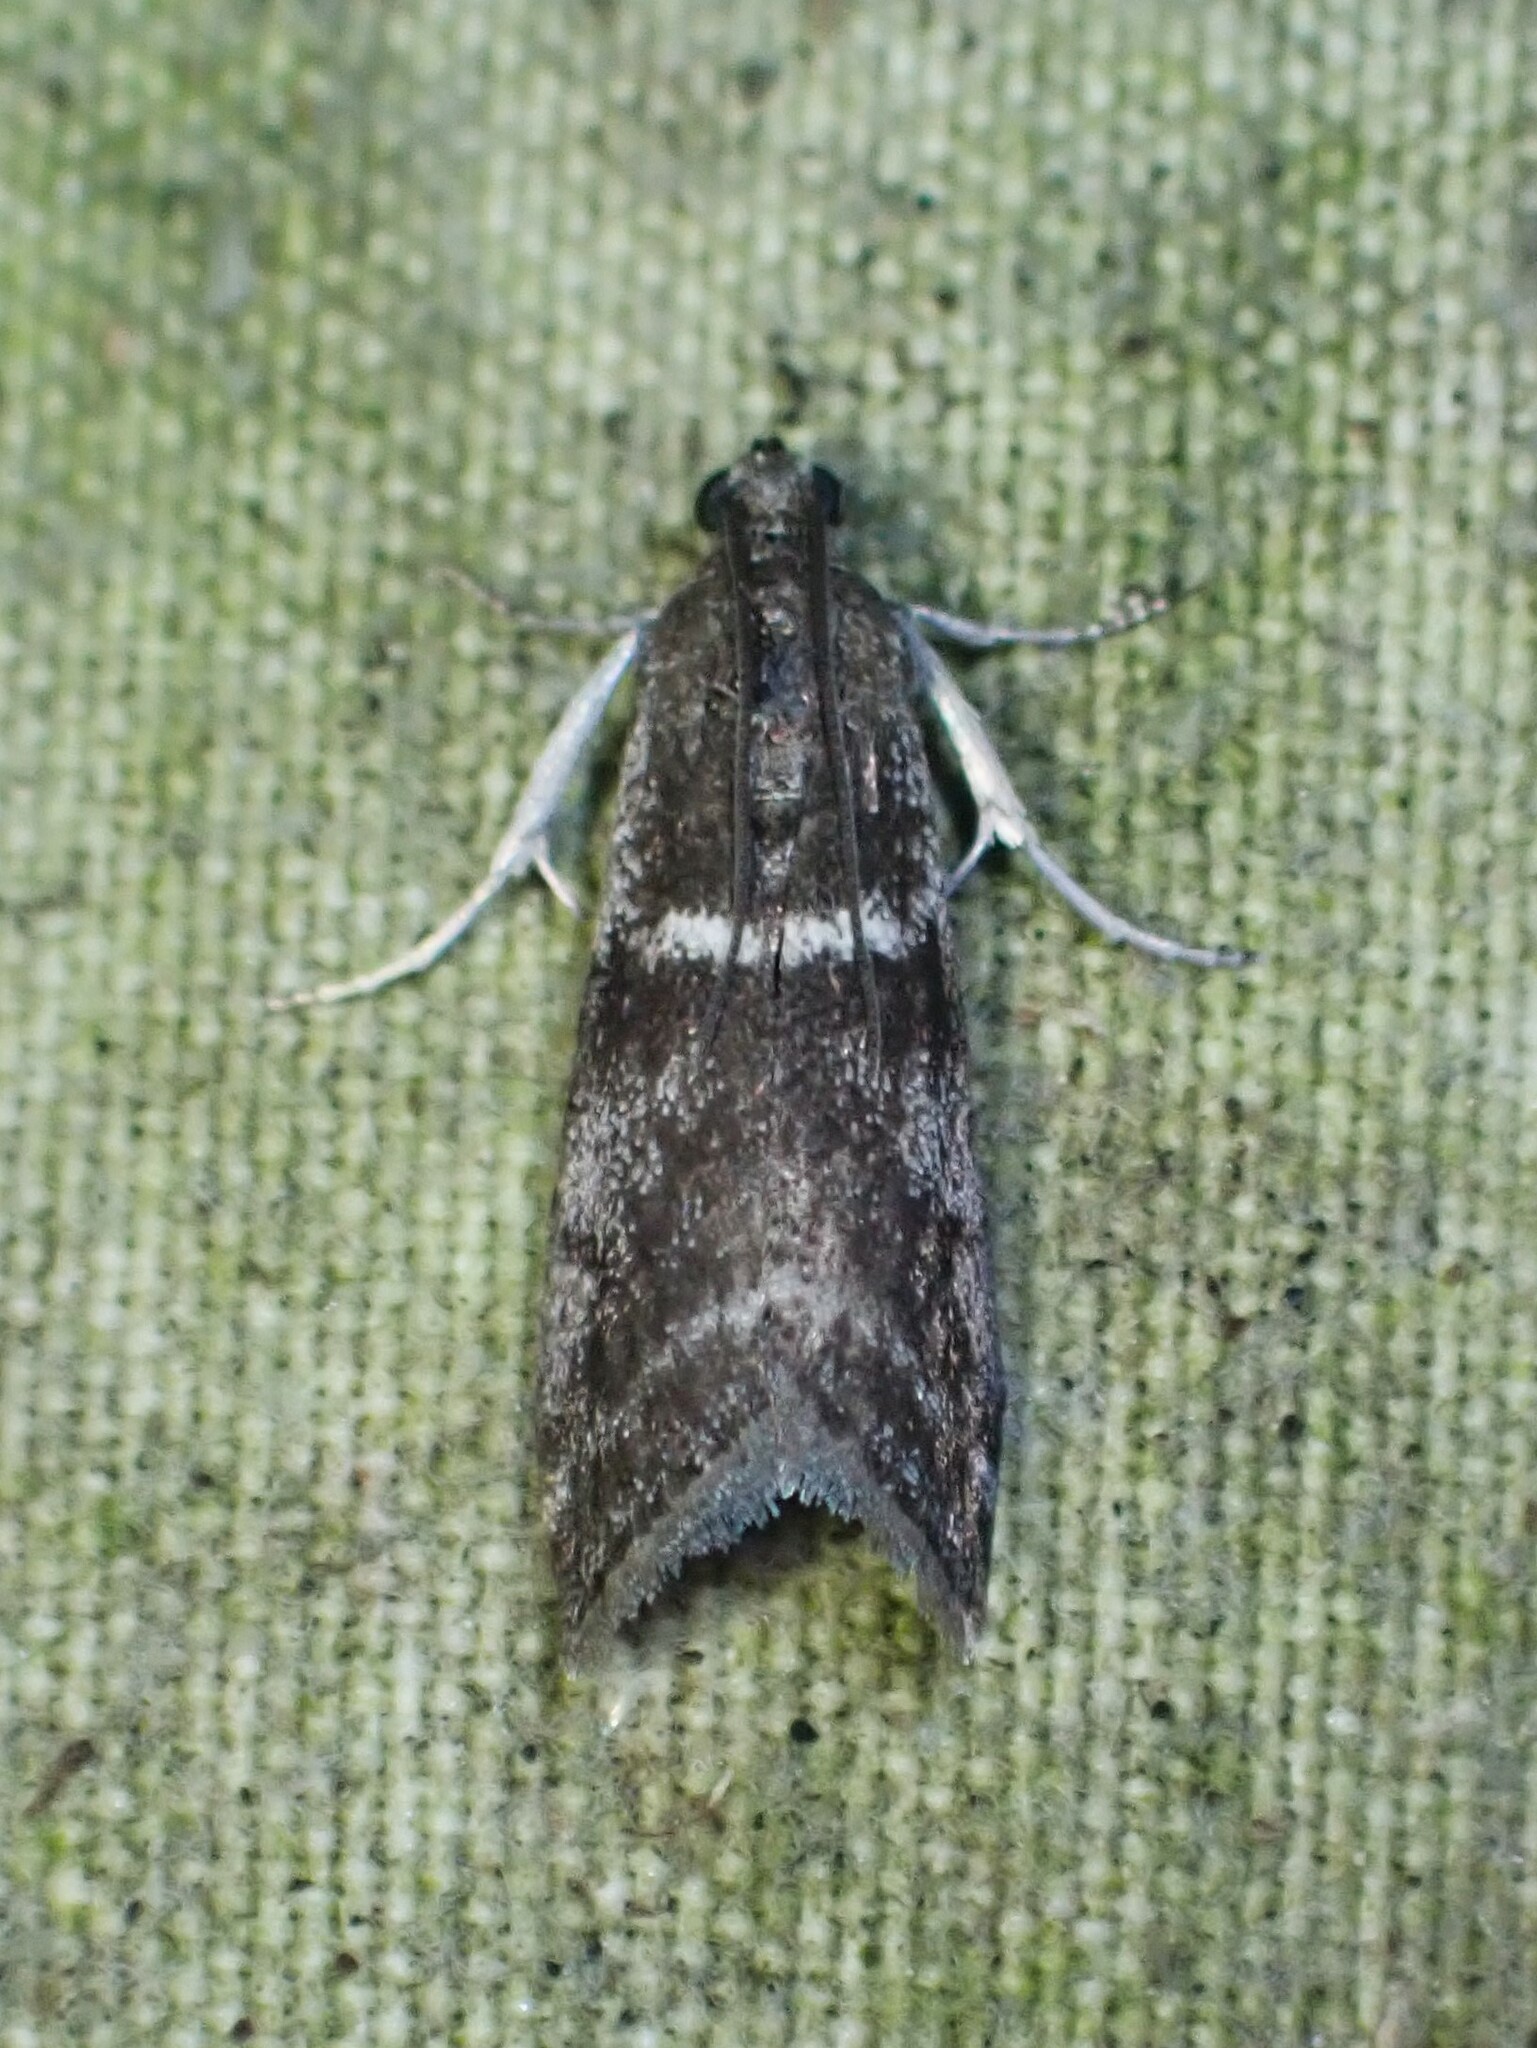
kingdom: Animalia
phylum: Arthropoda
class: Insecta
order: Lepidoptera
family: Pyralidae
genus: Apomyelois
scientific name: Apomyelois bistriatella
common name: Heath knot-horn
